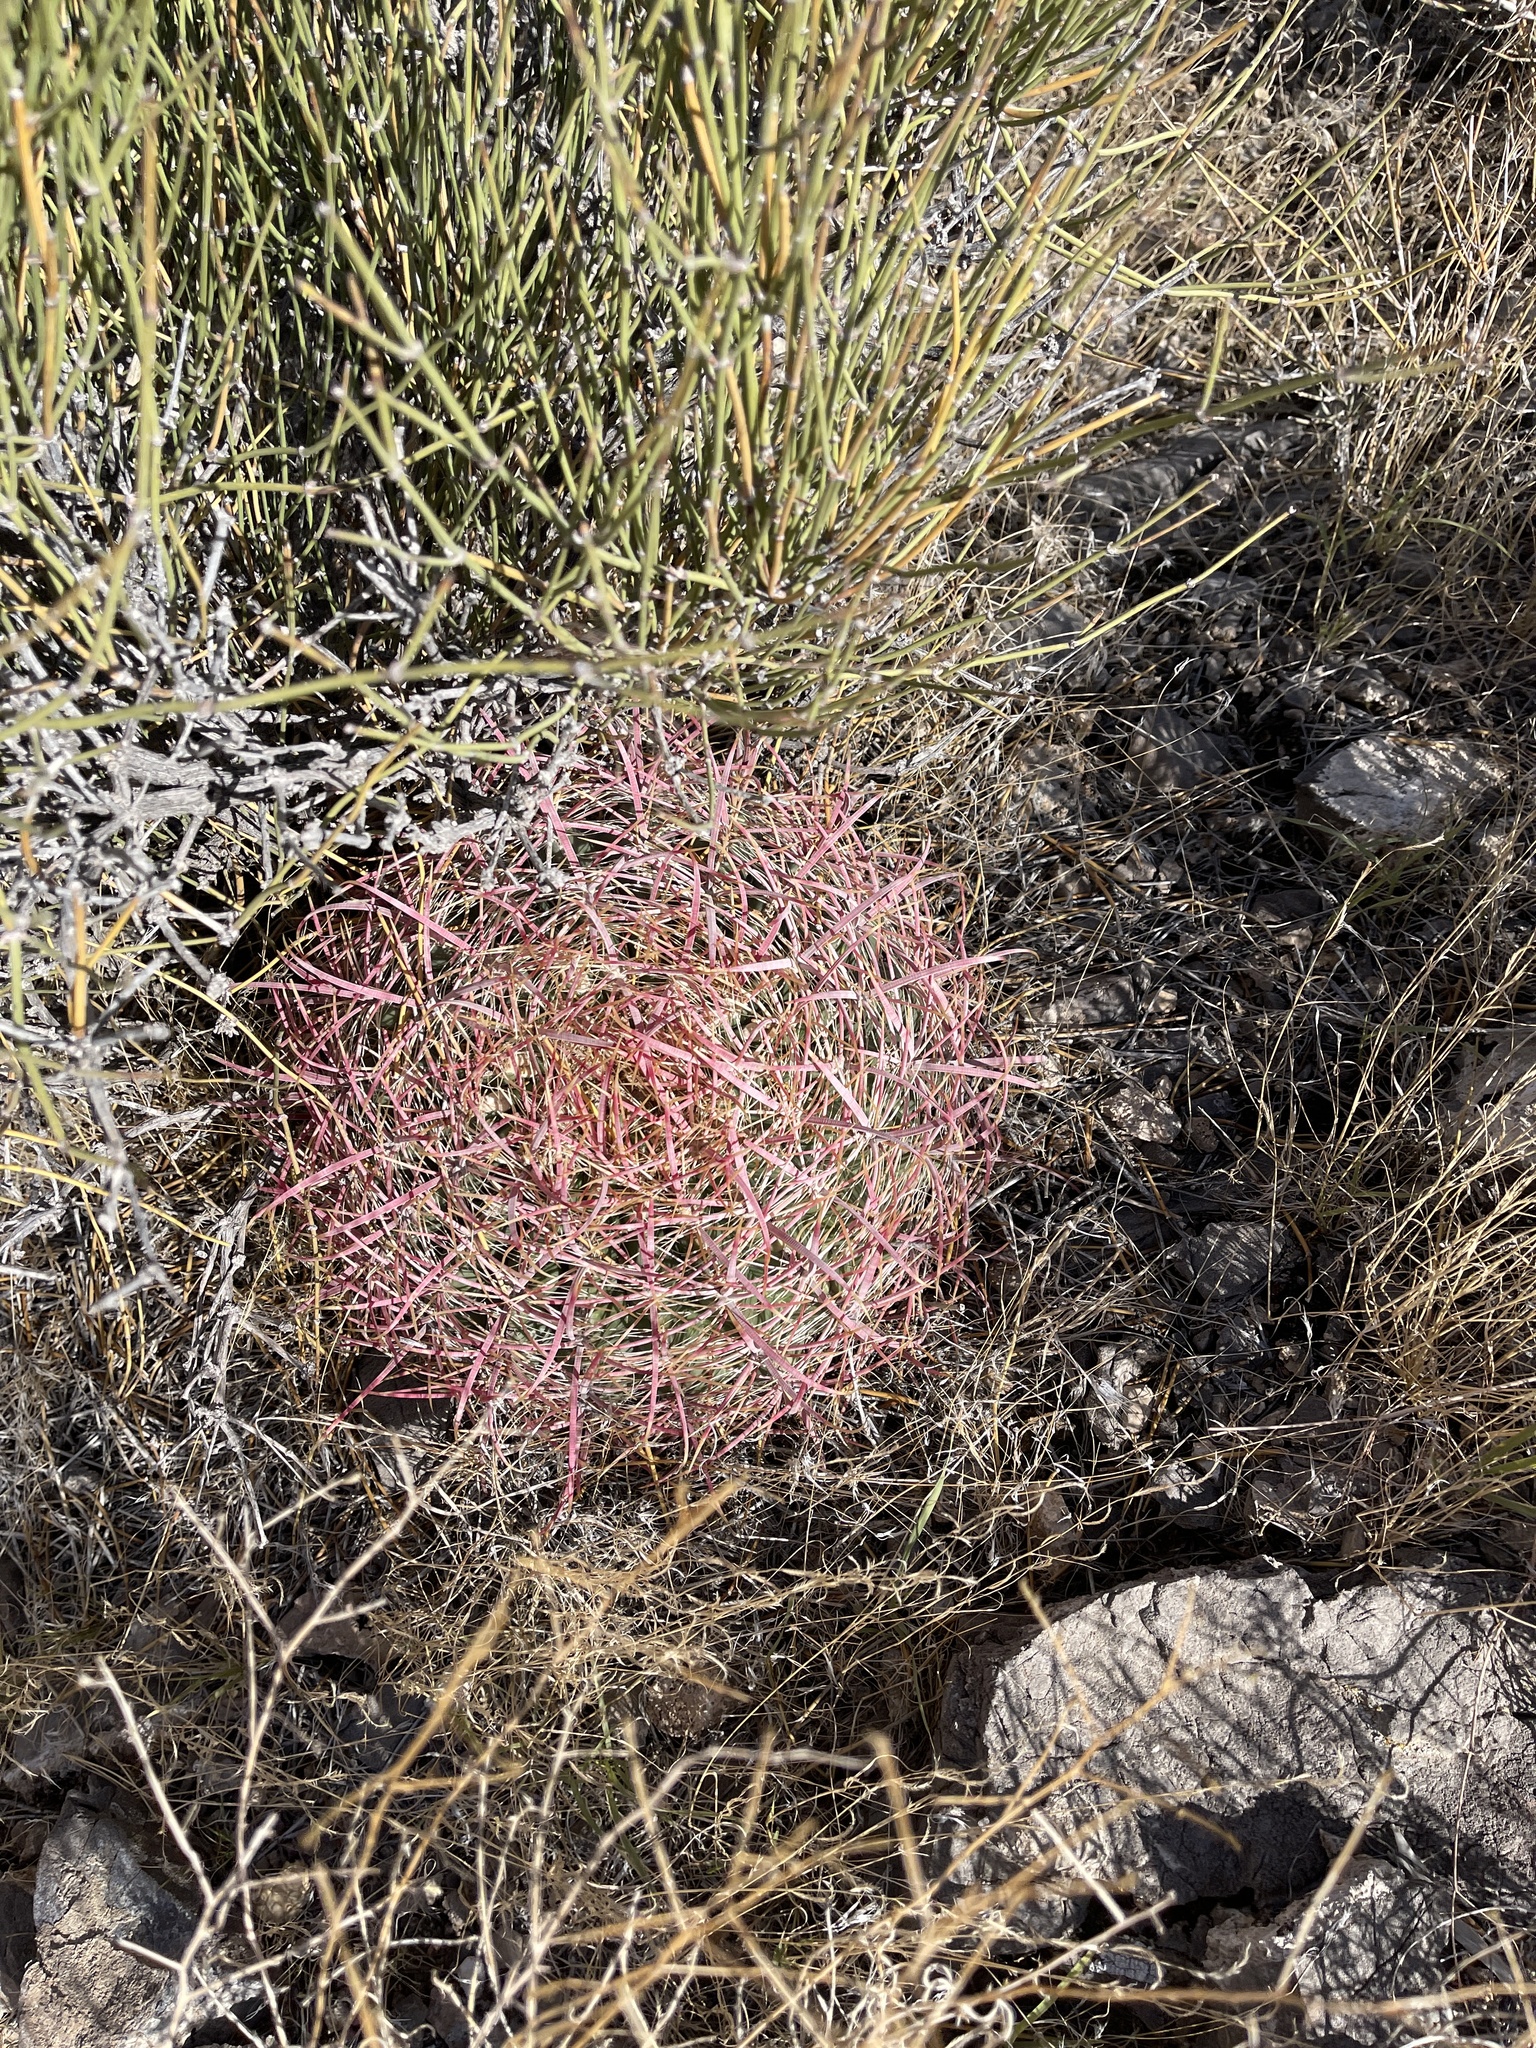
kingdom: Plantae
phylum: Tracheophyta
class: Magnoliopsida
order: Caryophyllales
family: Cactaceae
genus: Ferocactus
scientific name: Ferocactus cylindraceus
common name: California barrel cactus
